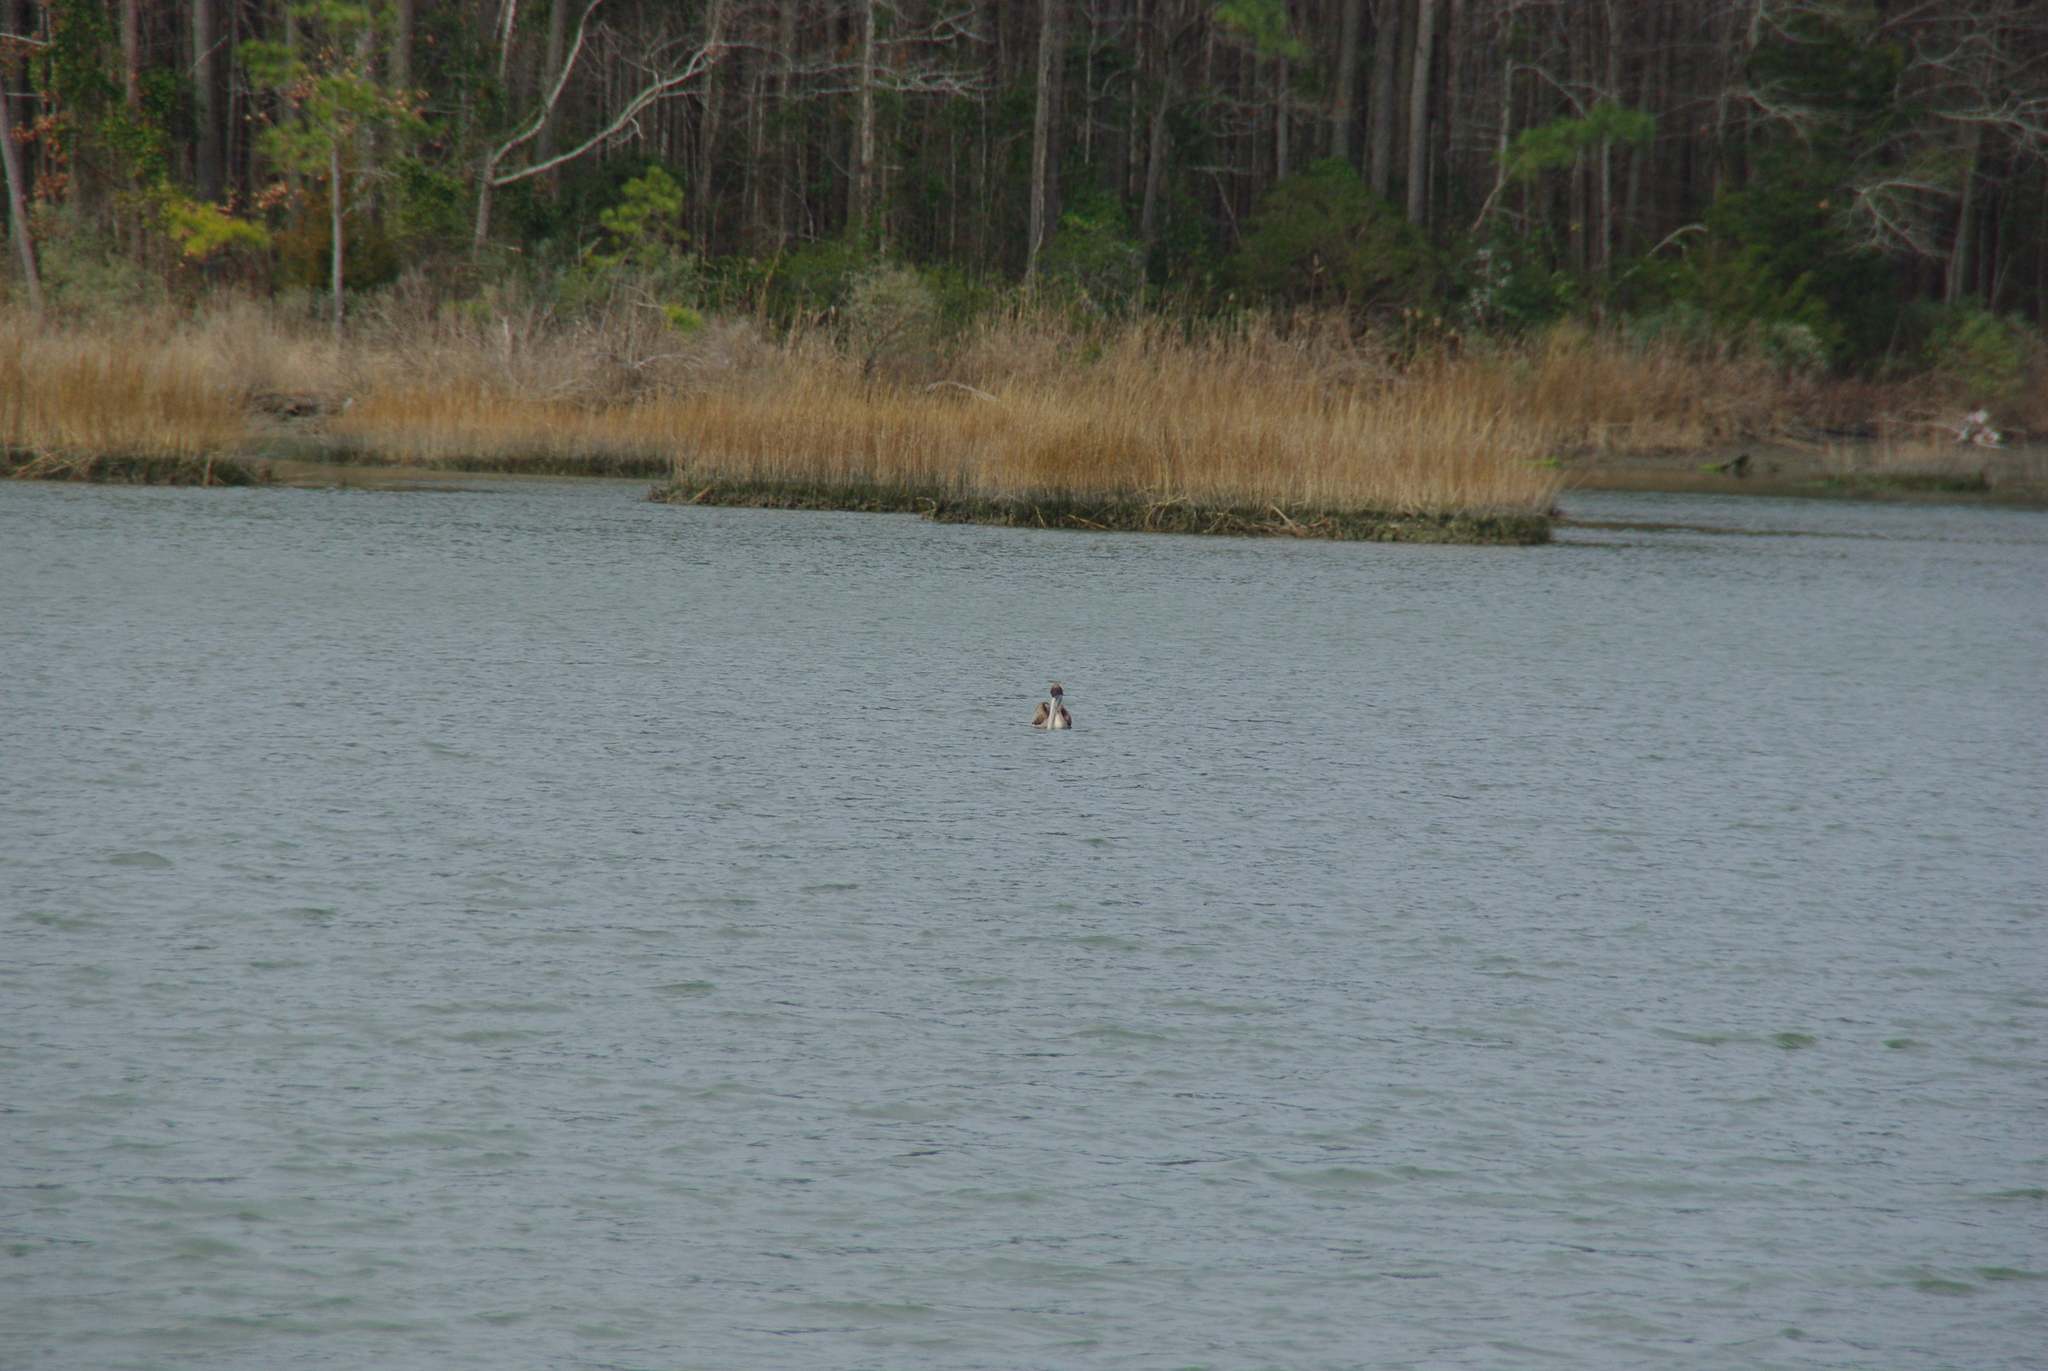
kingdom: Animalia
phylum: Chordata
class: Aves
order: Pelecaniformes
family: Pelecanidae
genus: Pelecanus
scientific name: Pelecanus occidentalis
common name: Brown pelican
